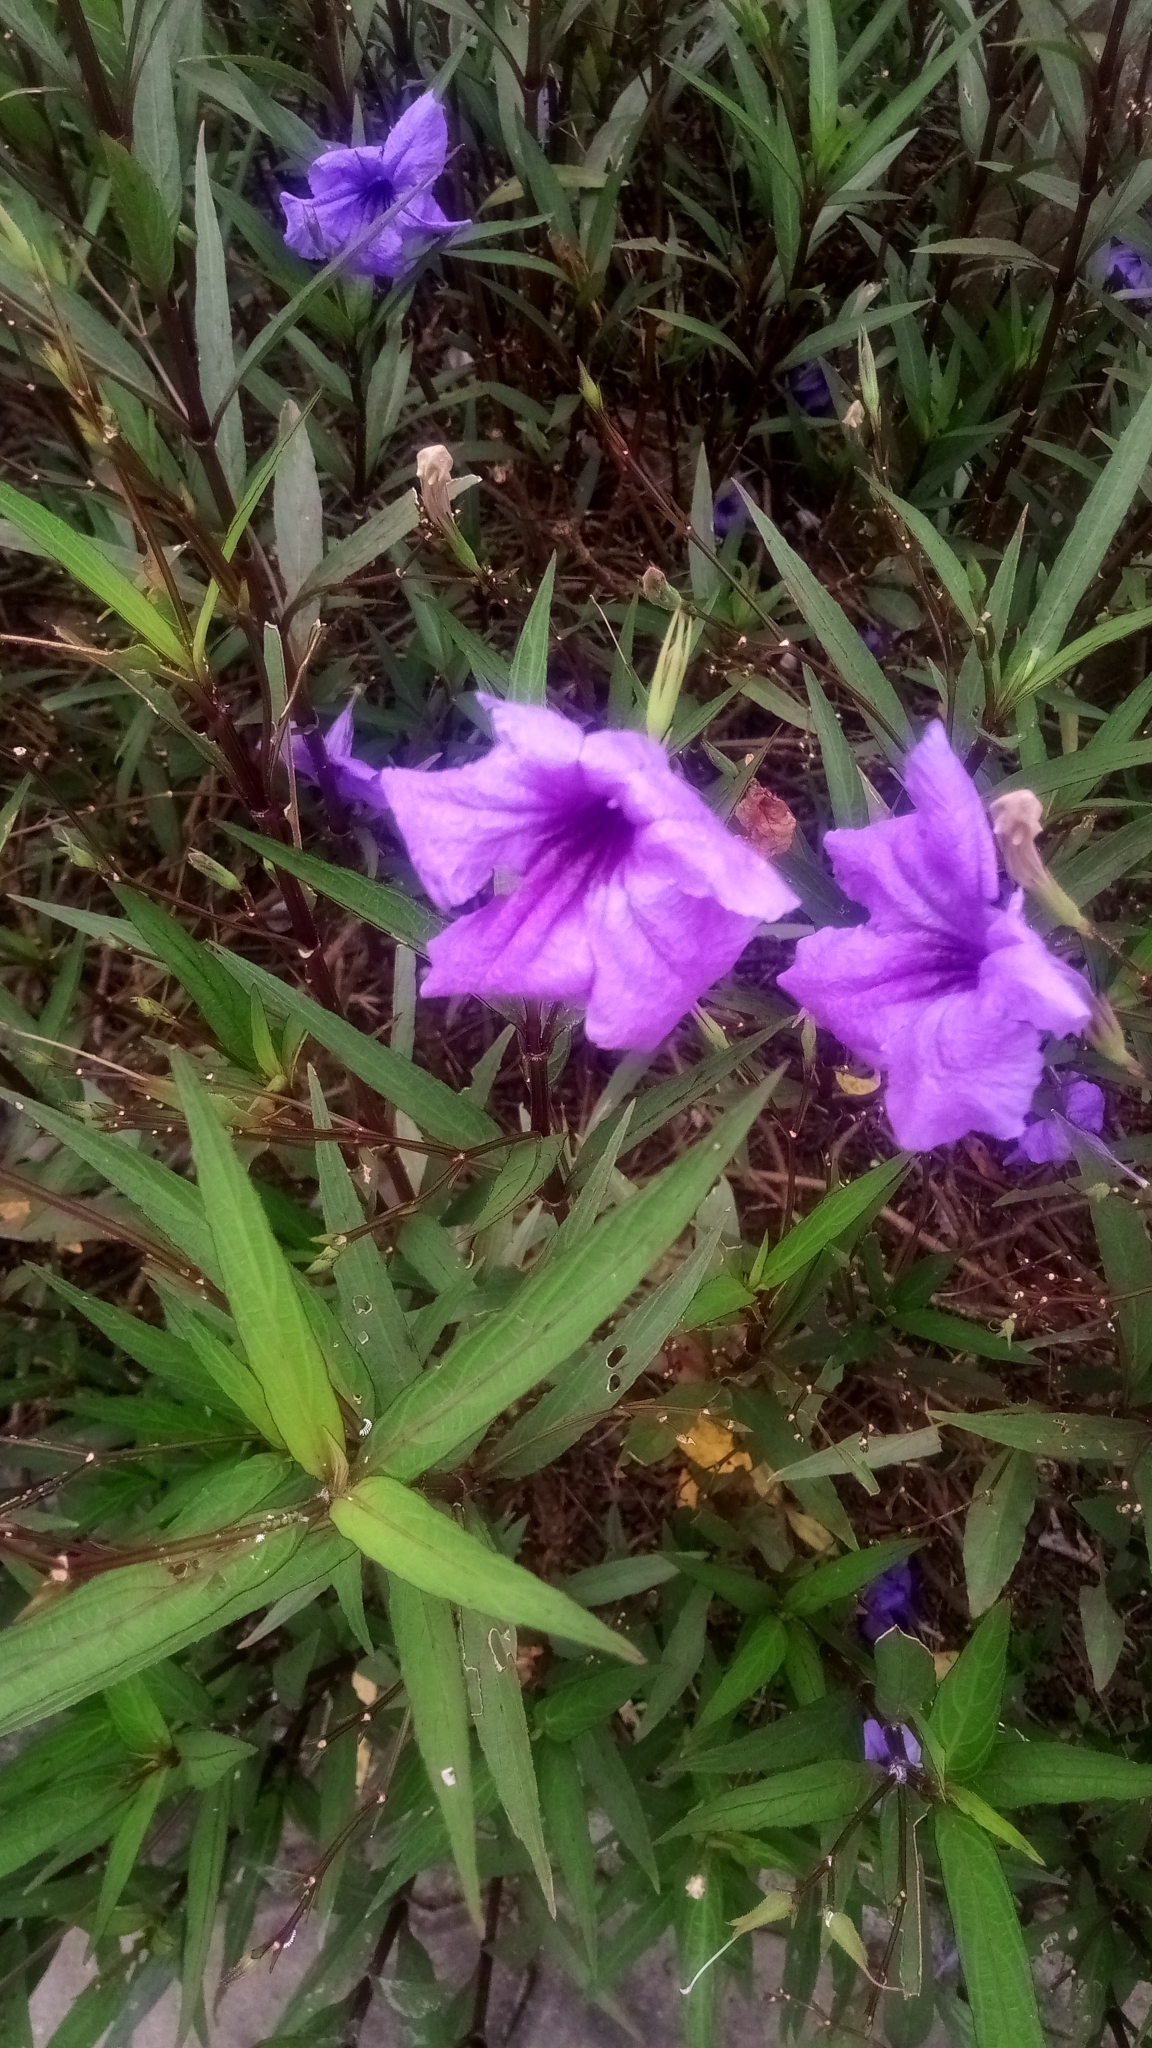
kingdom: Plantae
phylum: Tracheophyta
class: Magnoliopsida
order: Lamiales
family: Acanthaceae
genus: Ruellia
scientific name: Ruellia simplex
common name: Softseed wild petunia
